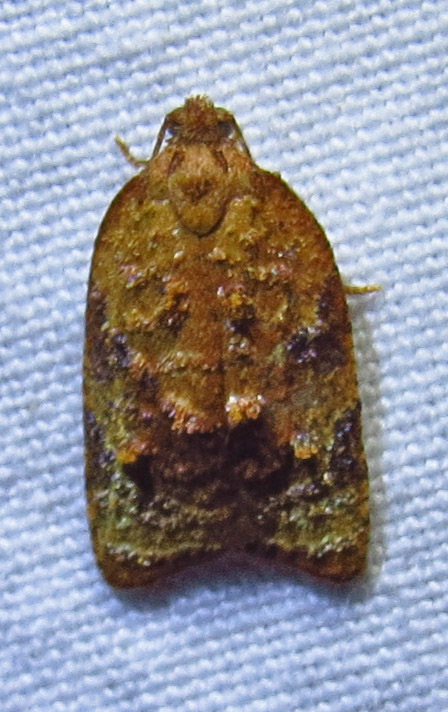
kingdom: Animalia
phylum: Arthropoda
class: Insecta
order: Lepidoptera
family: Tortricidae
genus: Platynota
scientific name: Platynota idaeusalis
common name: Tufted apple bud moth
